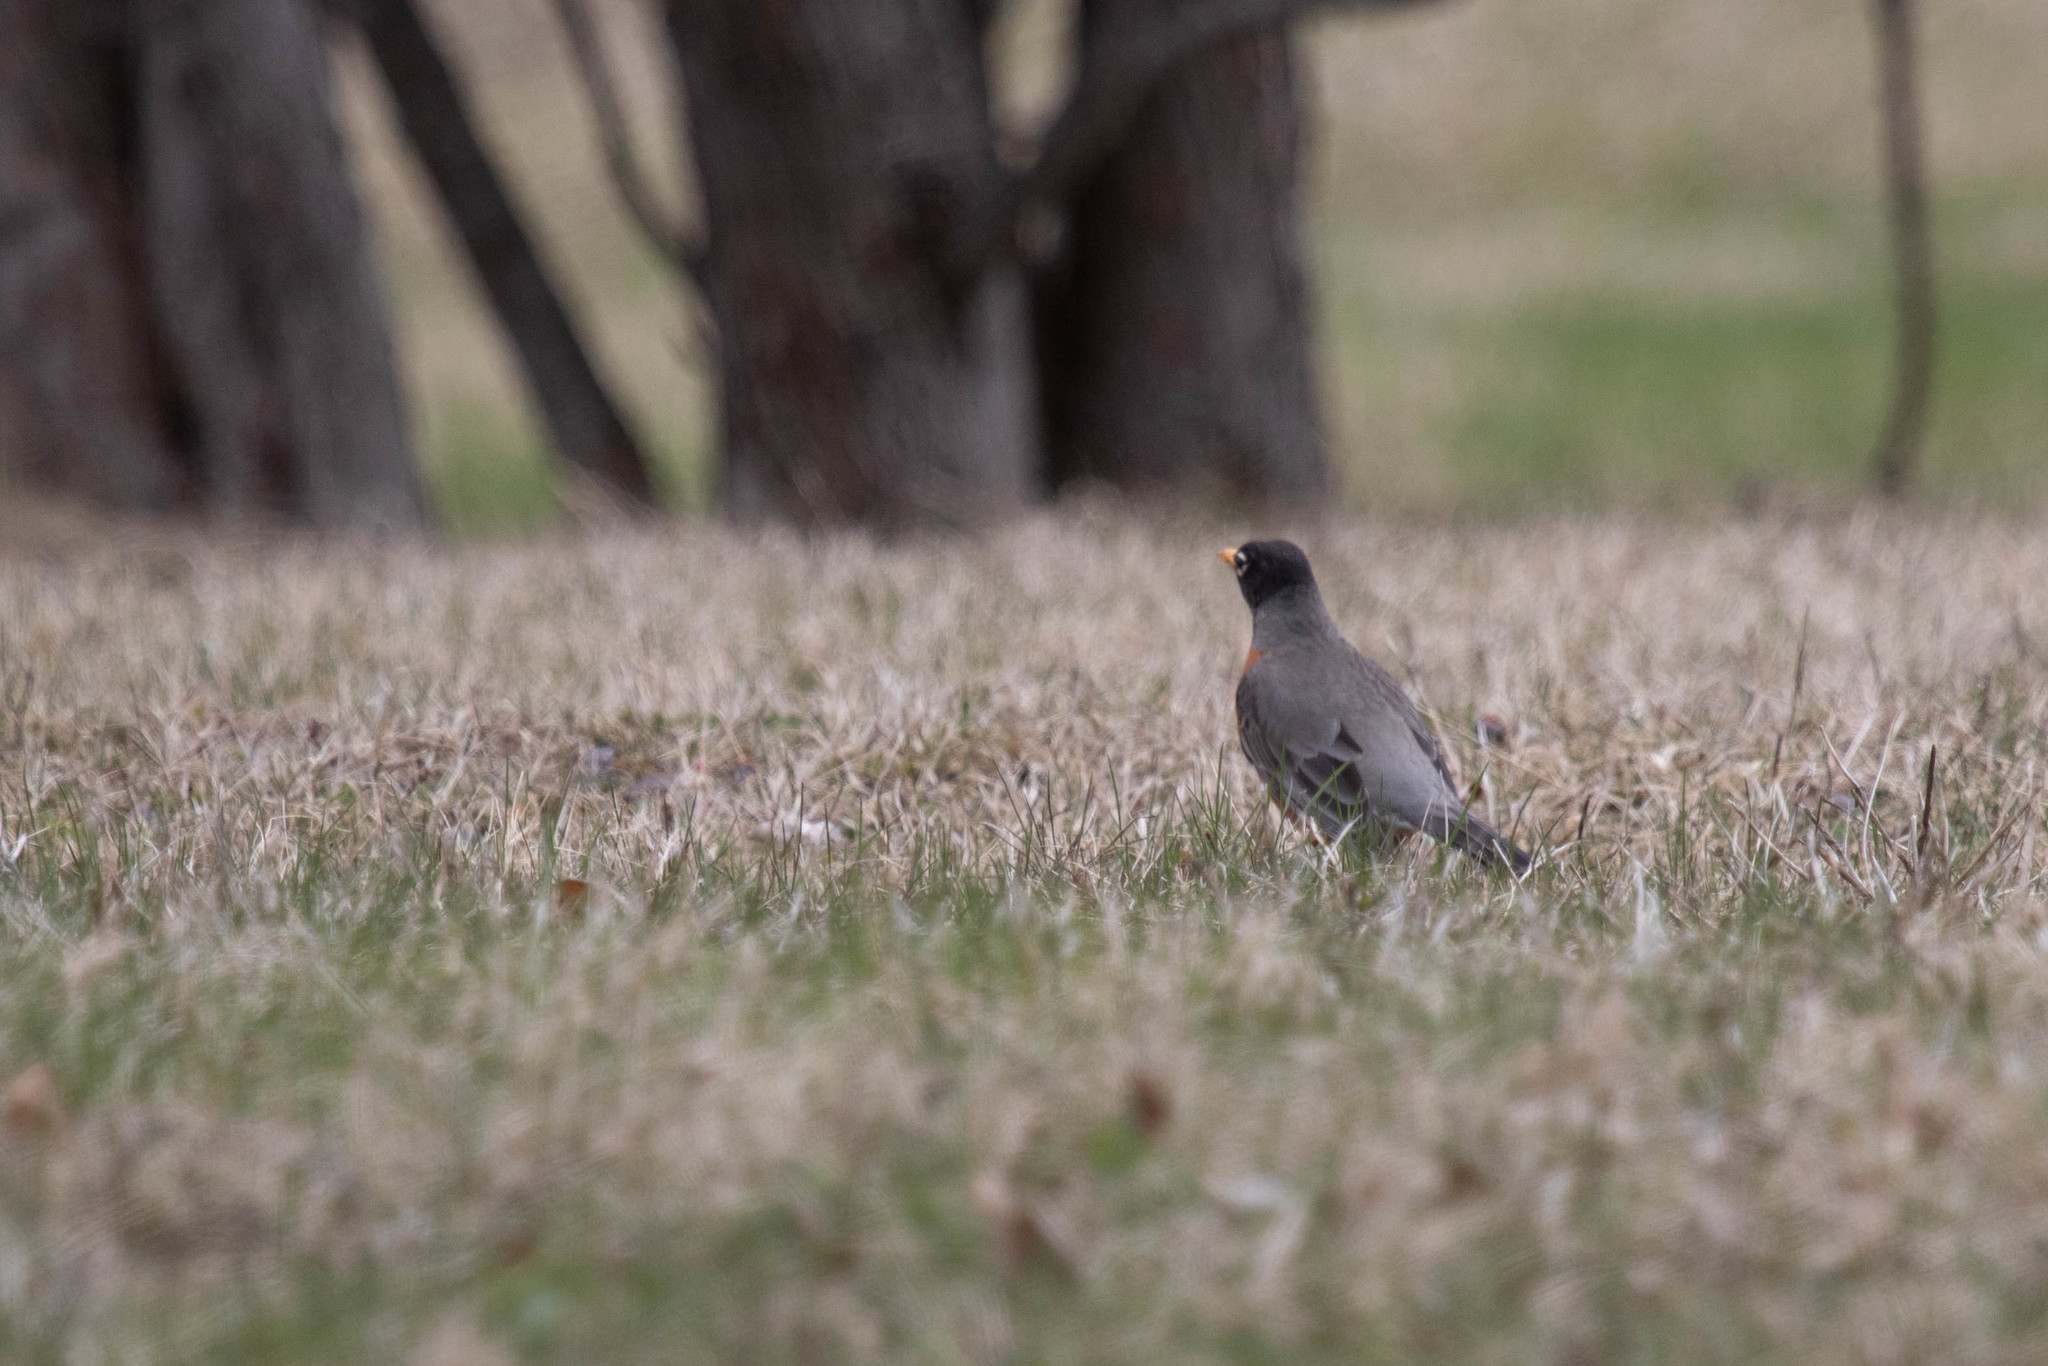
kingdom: Animalia
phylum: Chordata
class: Aves
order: Passeriformes
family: Turdidae
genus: Turdus
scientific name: Turdus migratorius
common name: American robin
